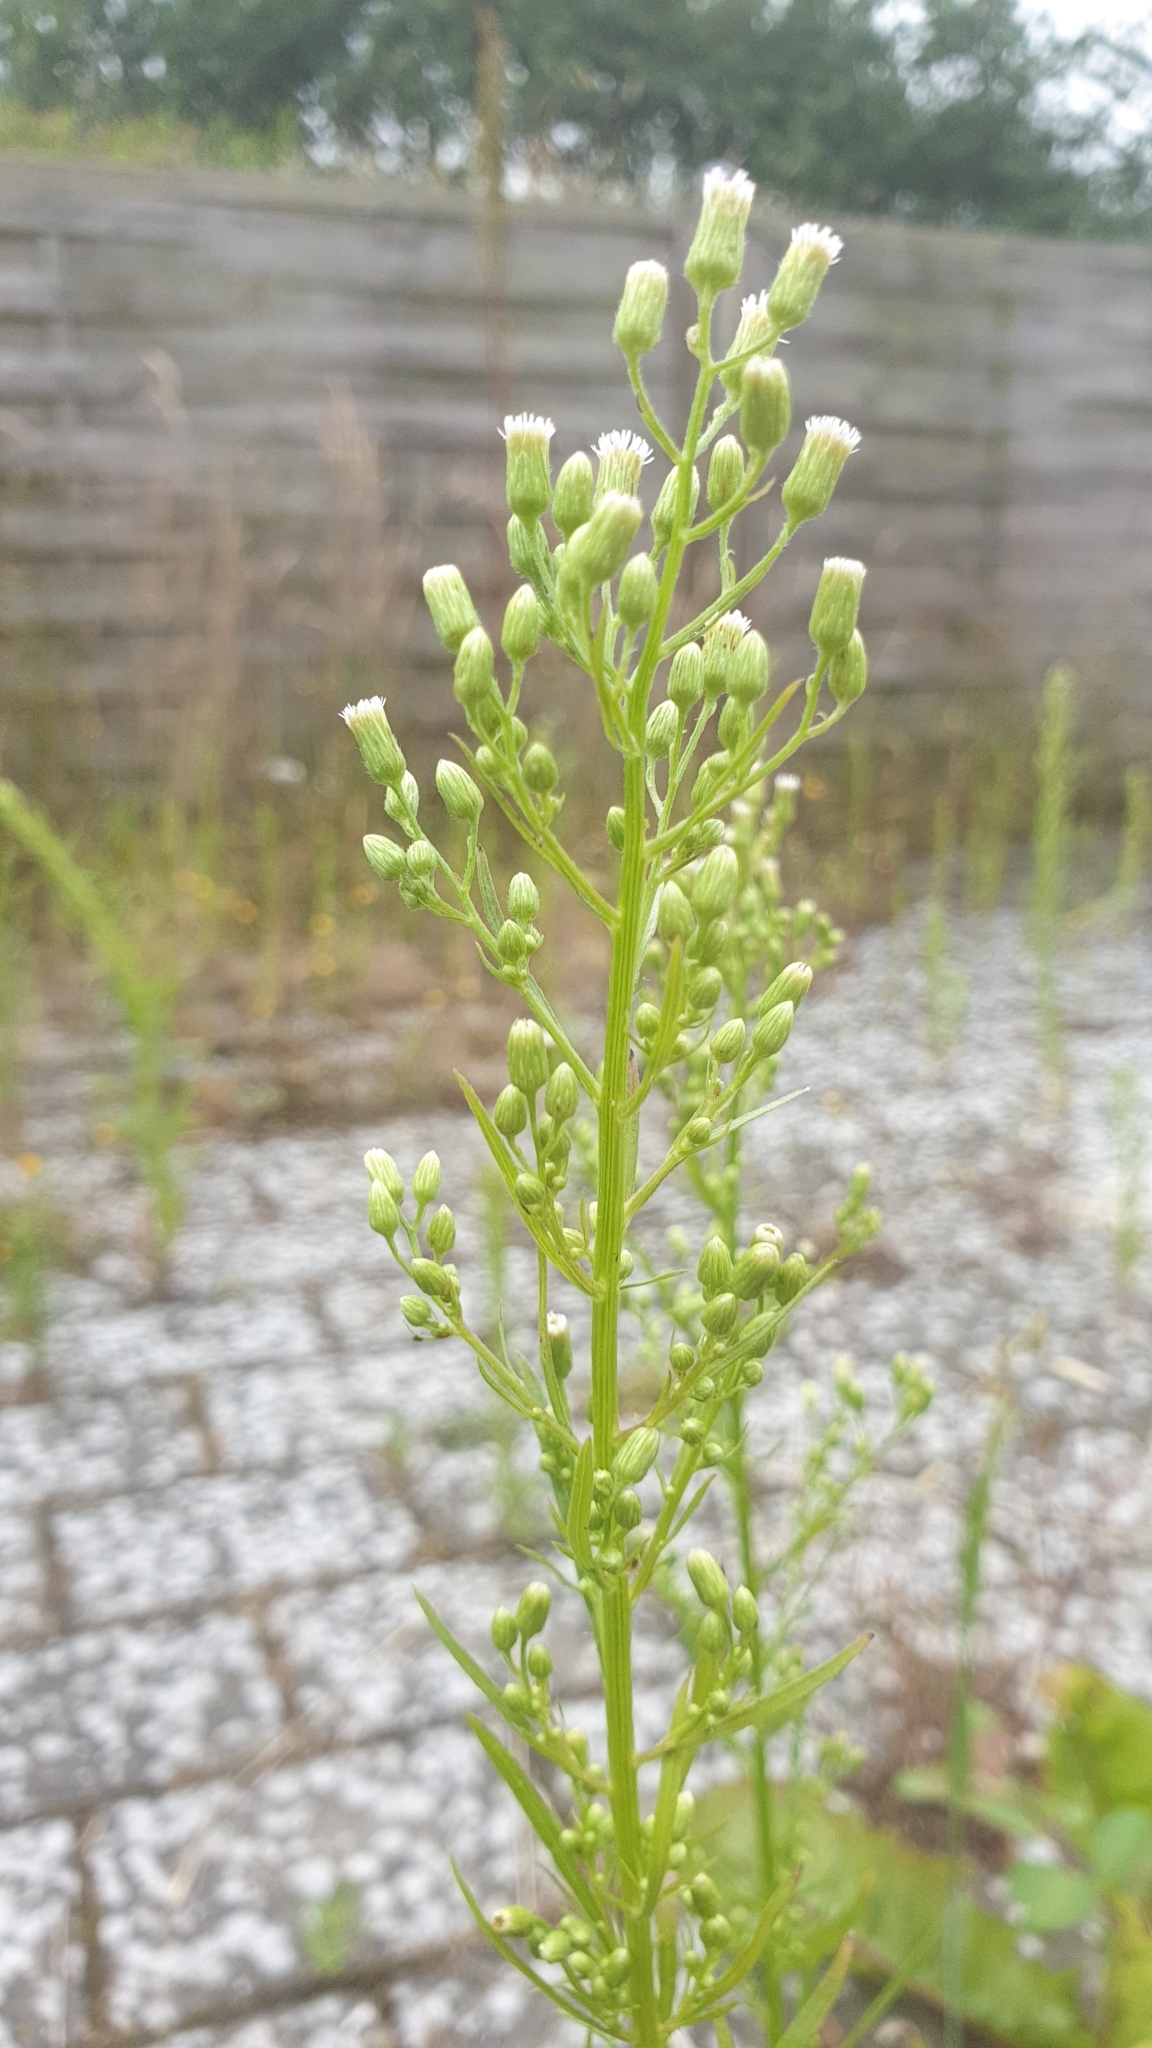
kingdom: Plantae
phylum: Tracheophyta
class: Magnoliopsida
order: Asterales
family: Asteraceae
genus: Erigeron
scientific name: Erigeron canadensis
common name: Canadian fleabane
